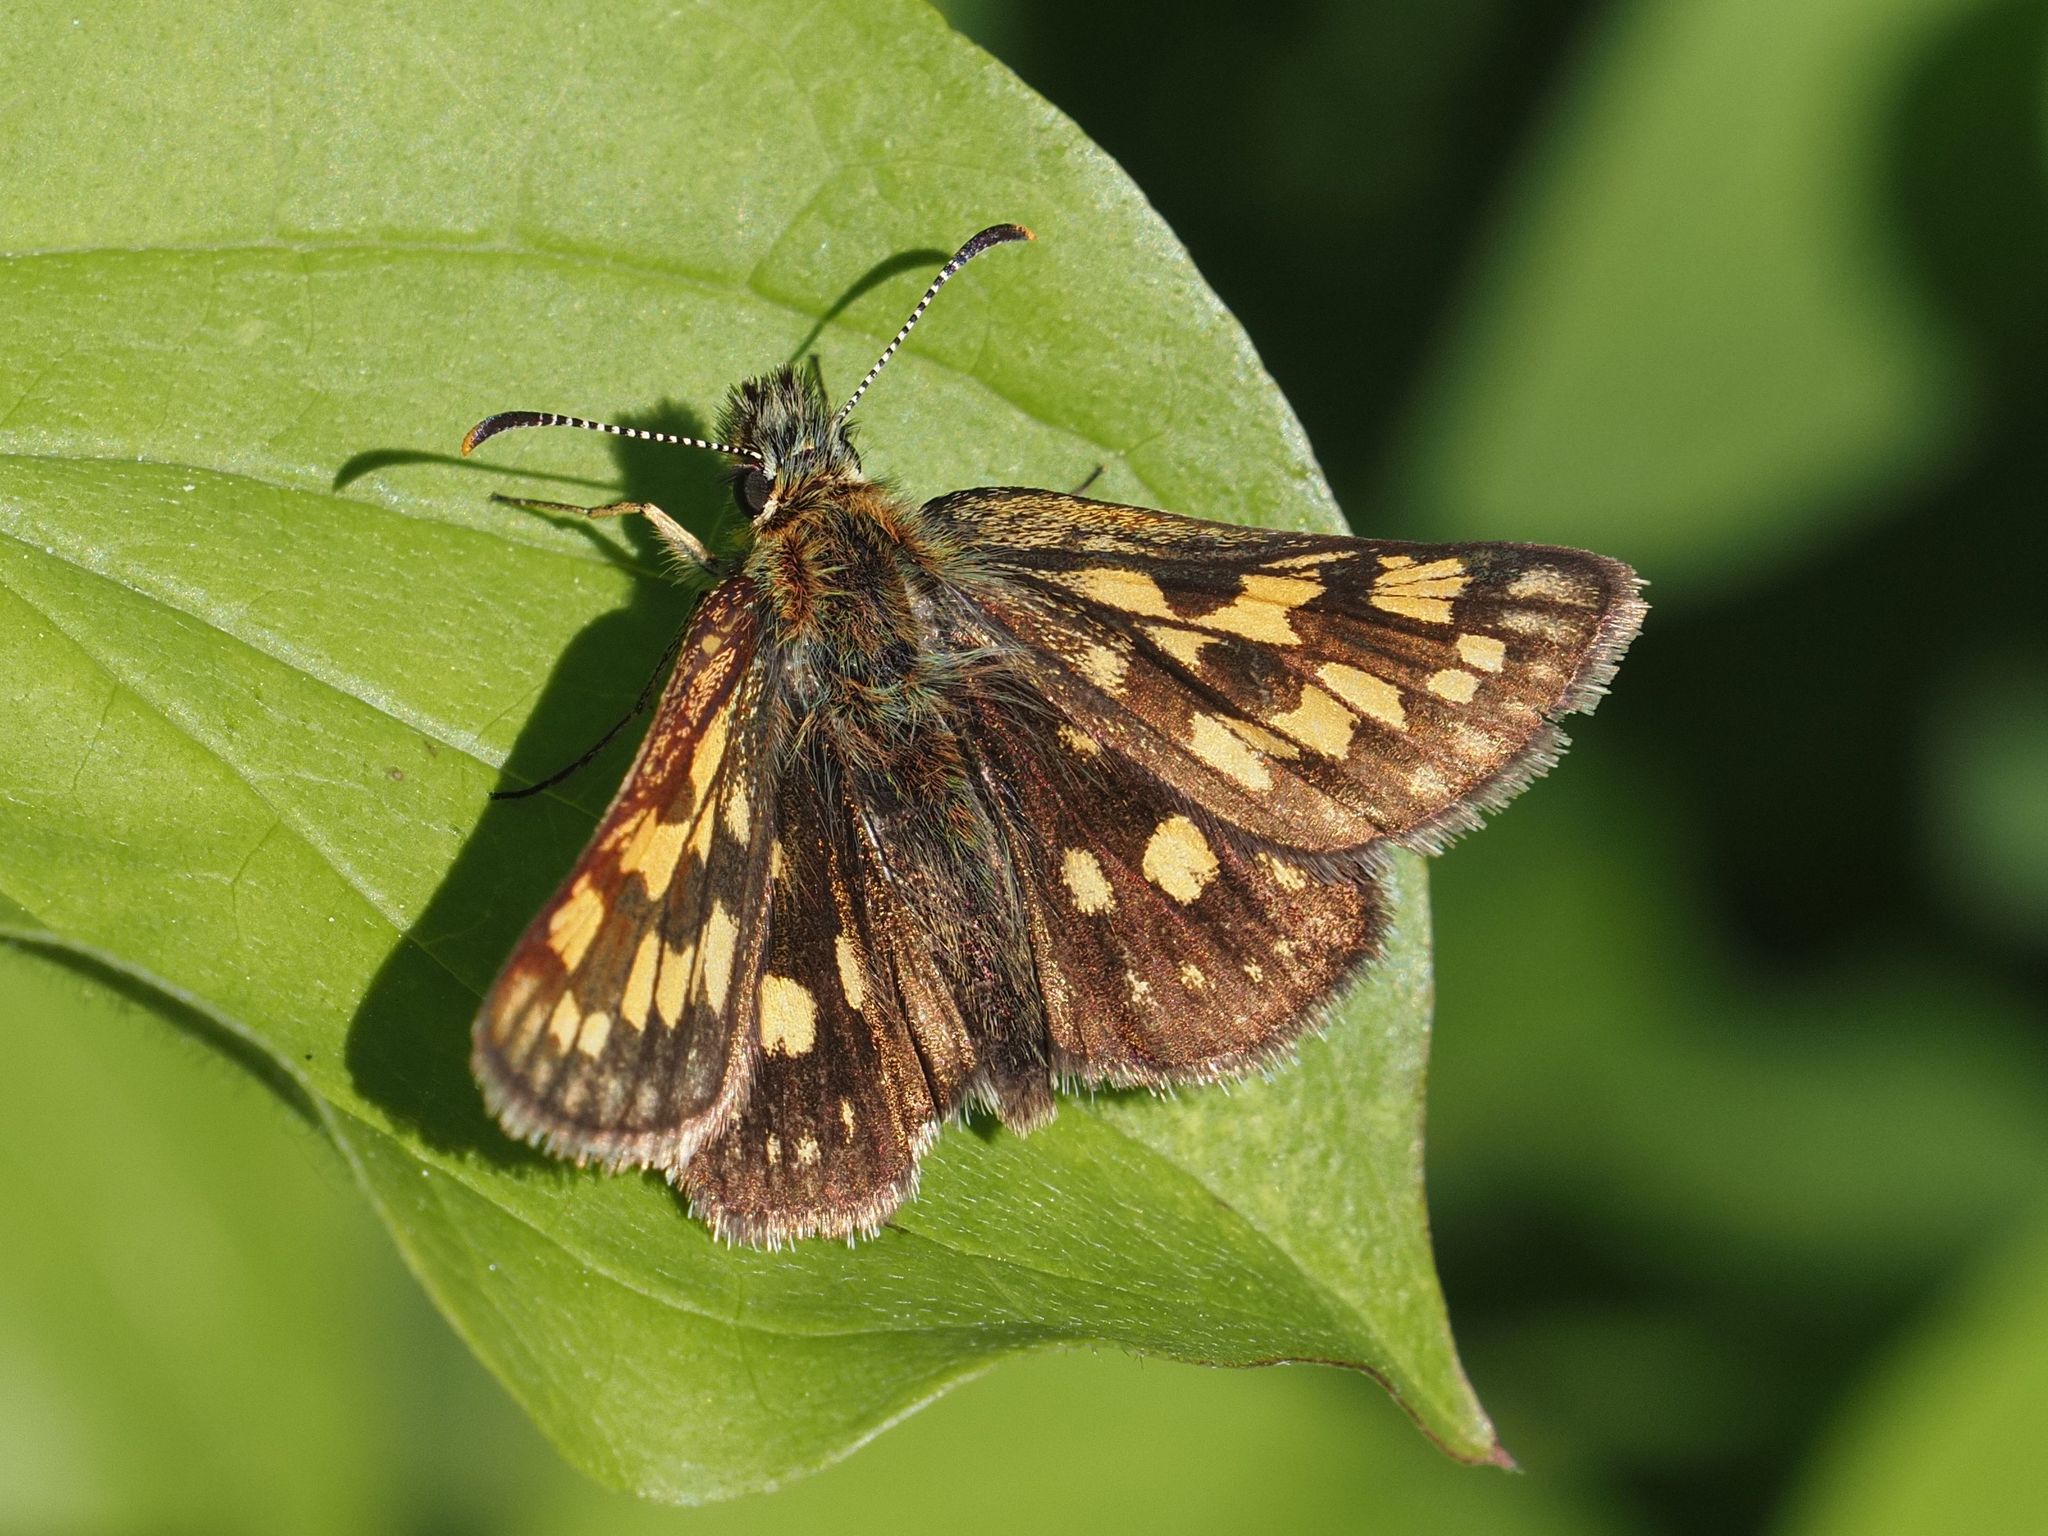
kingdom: Animalia
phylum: Arthropoda
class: Insecta
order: Lepidoptera
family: Hesperiidae
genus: Carterocephalus
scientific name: Carterocephalus palaemon
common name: Chequered skipper
